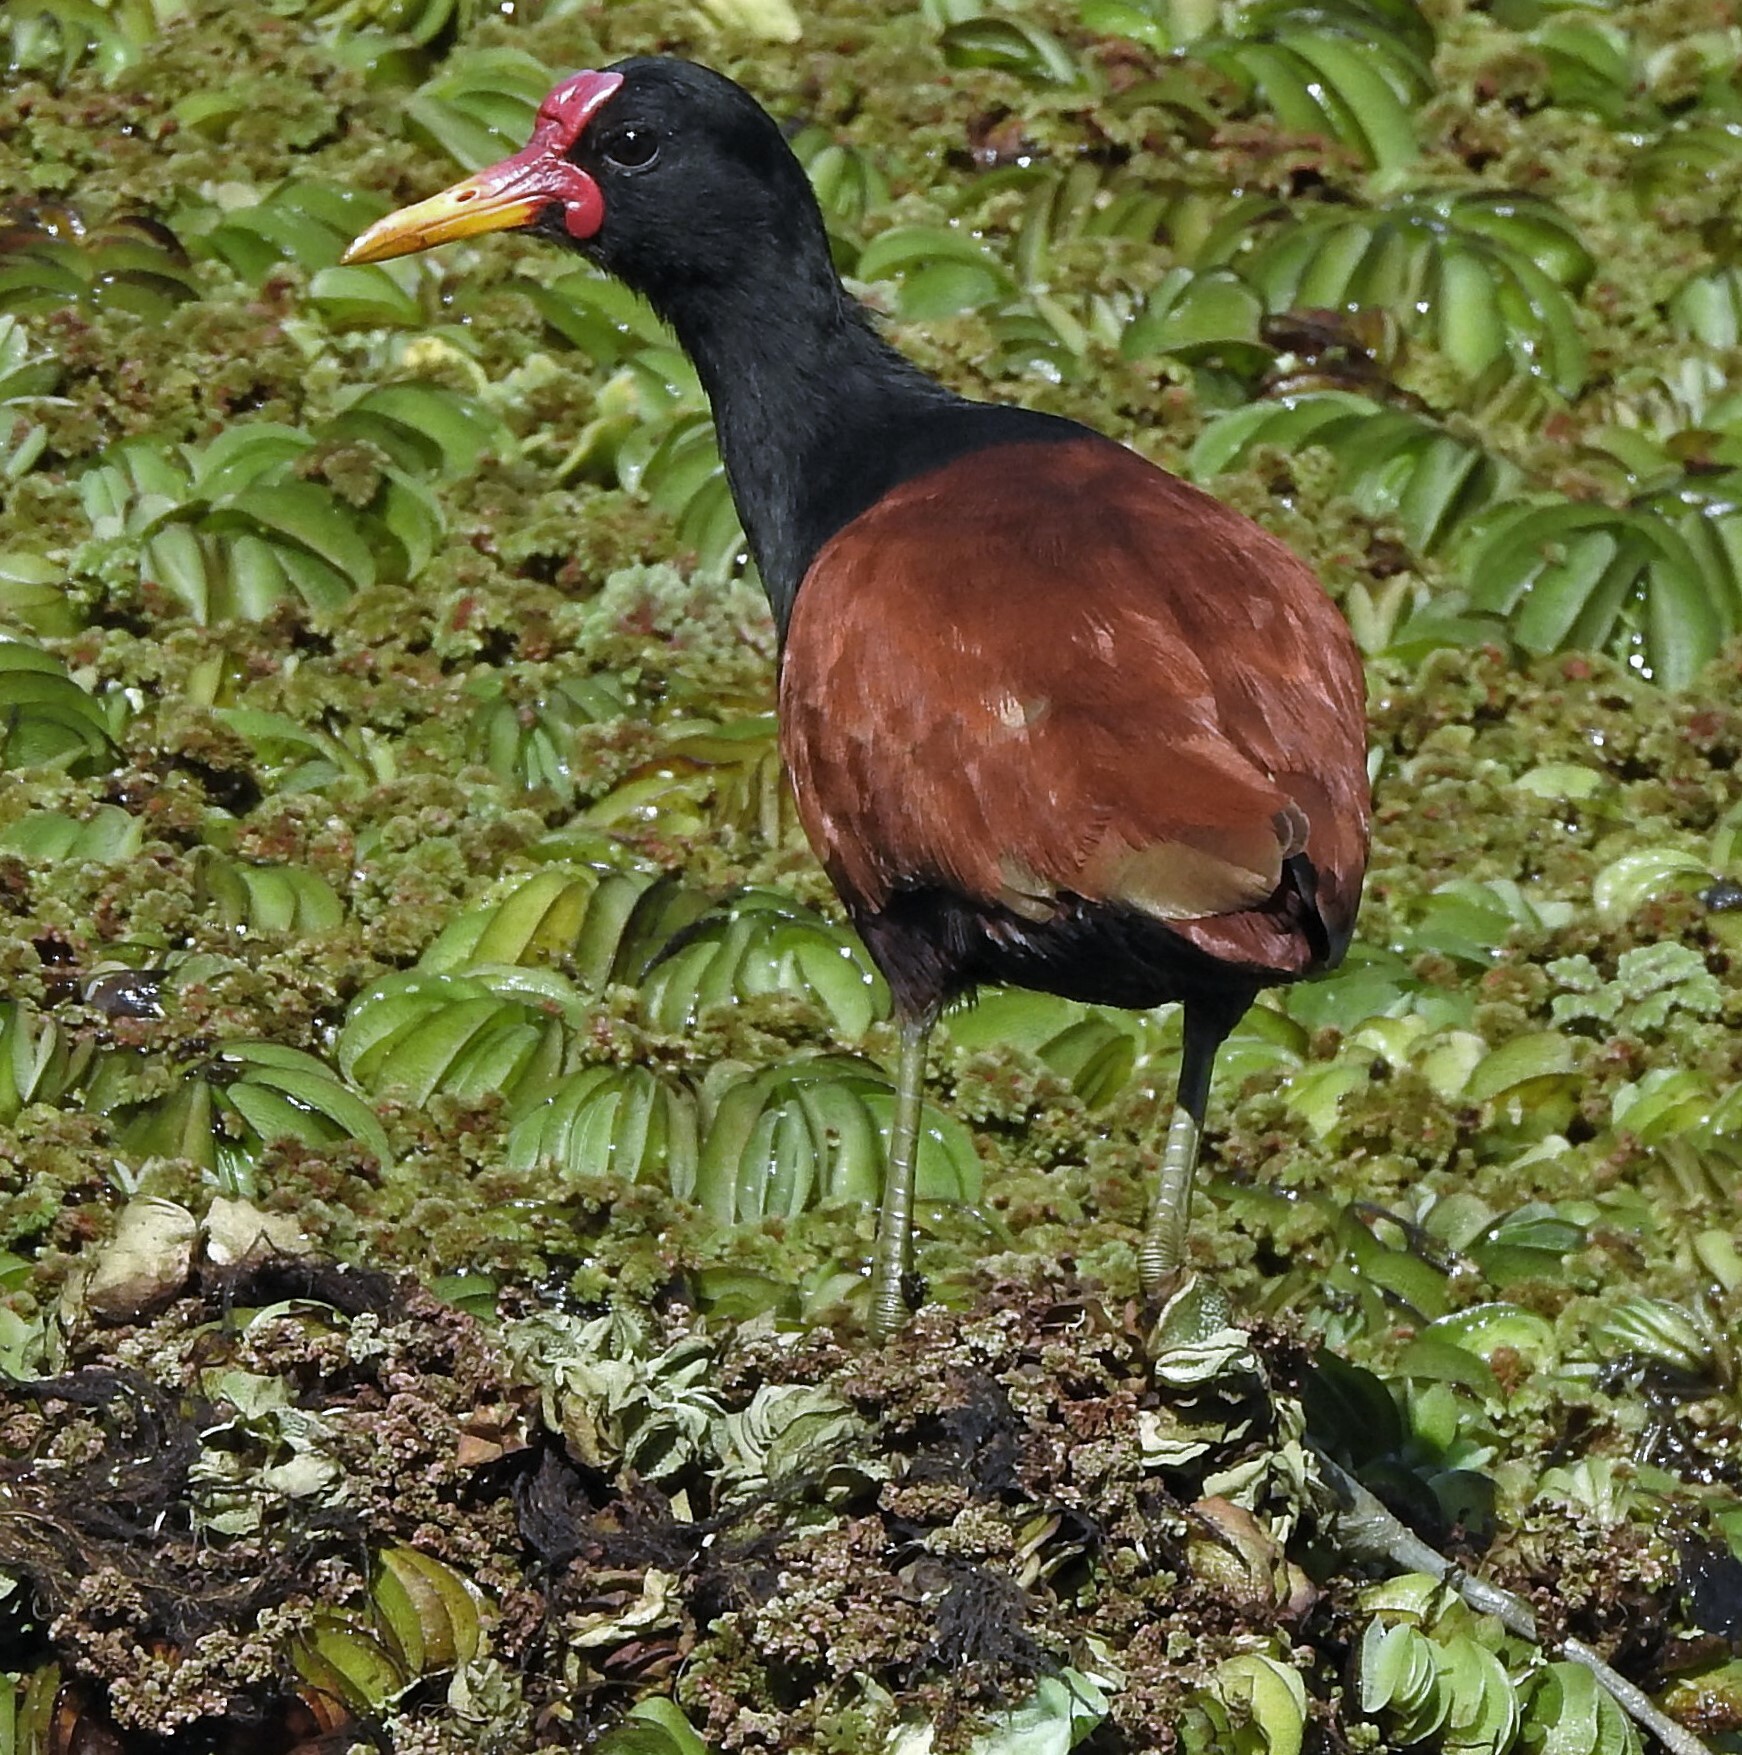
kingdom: Animalia
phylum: Chordata
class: Aves
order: Charadriiformes
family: Jacanidae
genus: Jacana
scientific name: Jacana jacana
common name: Wattled jacana
